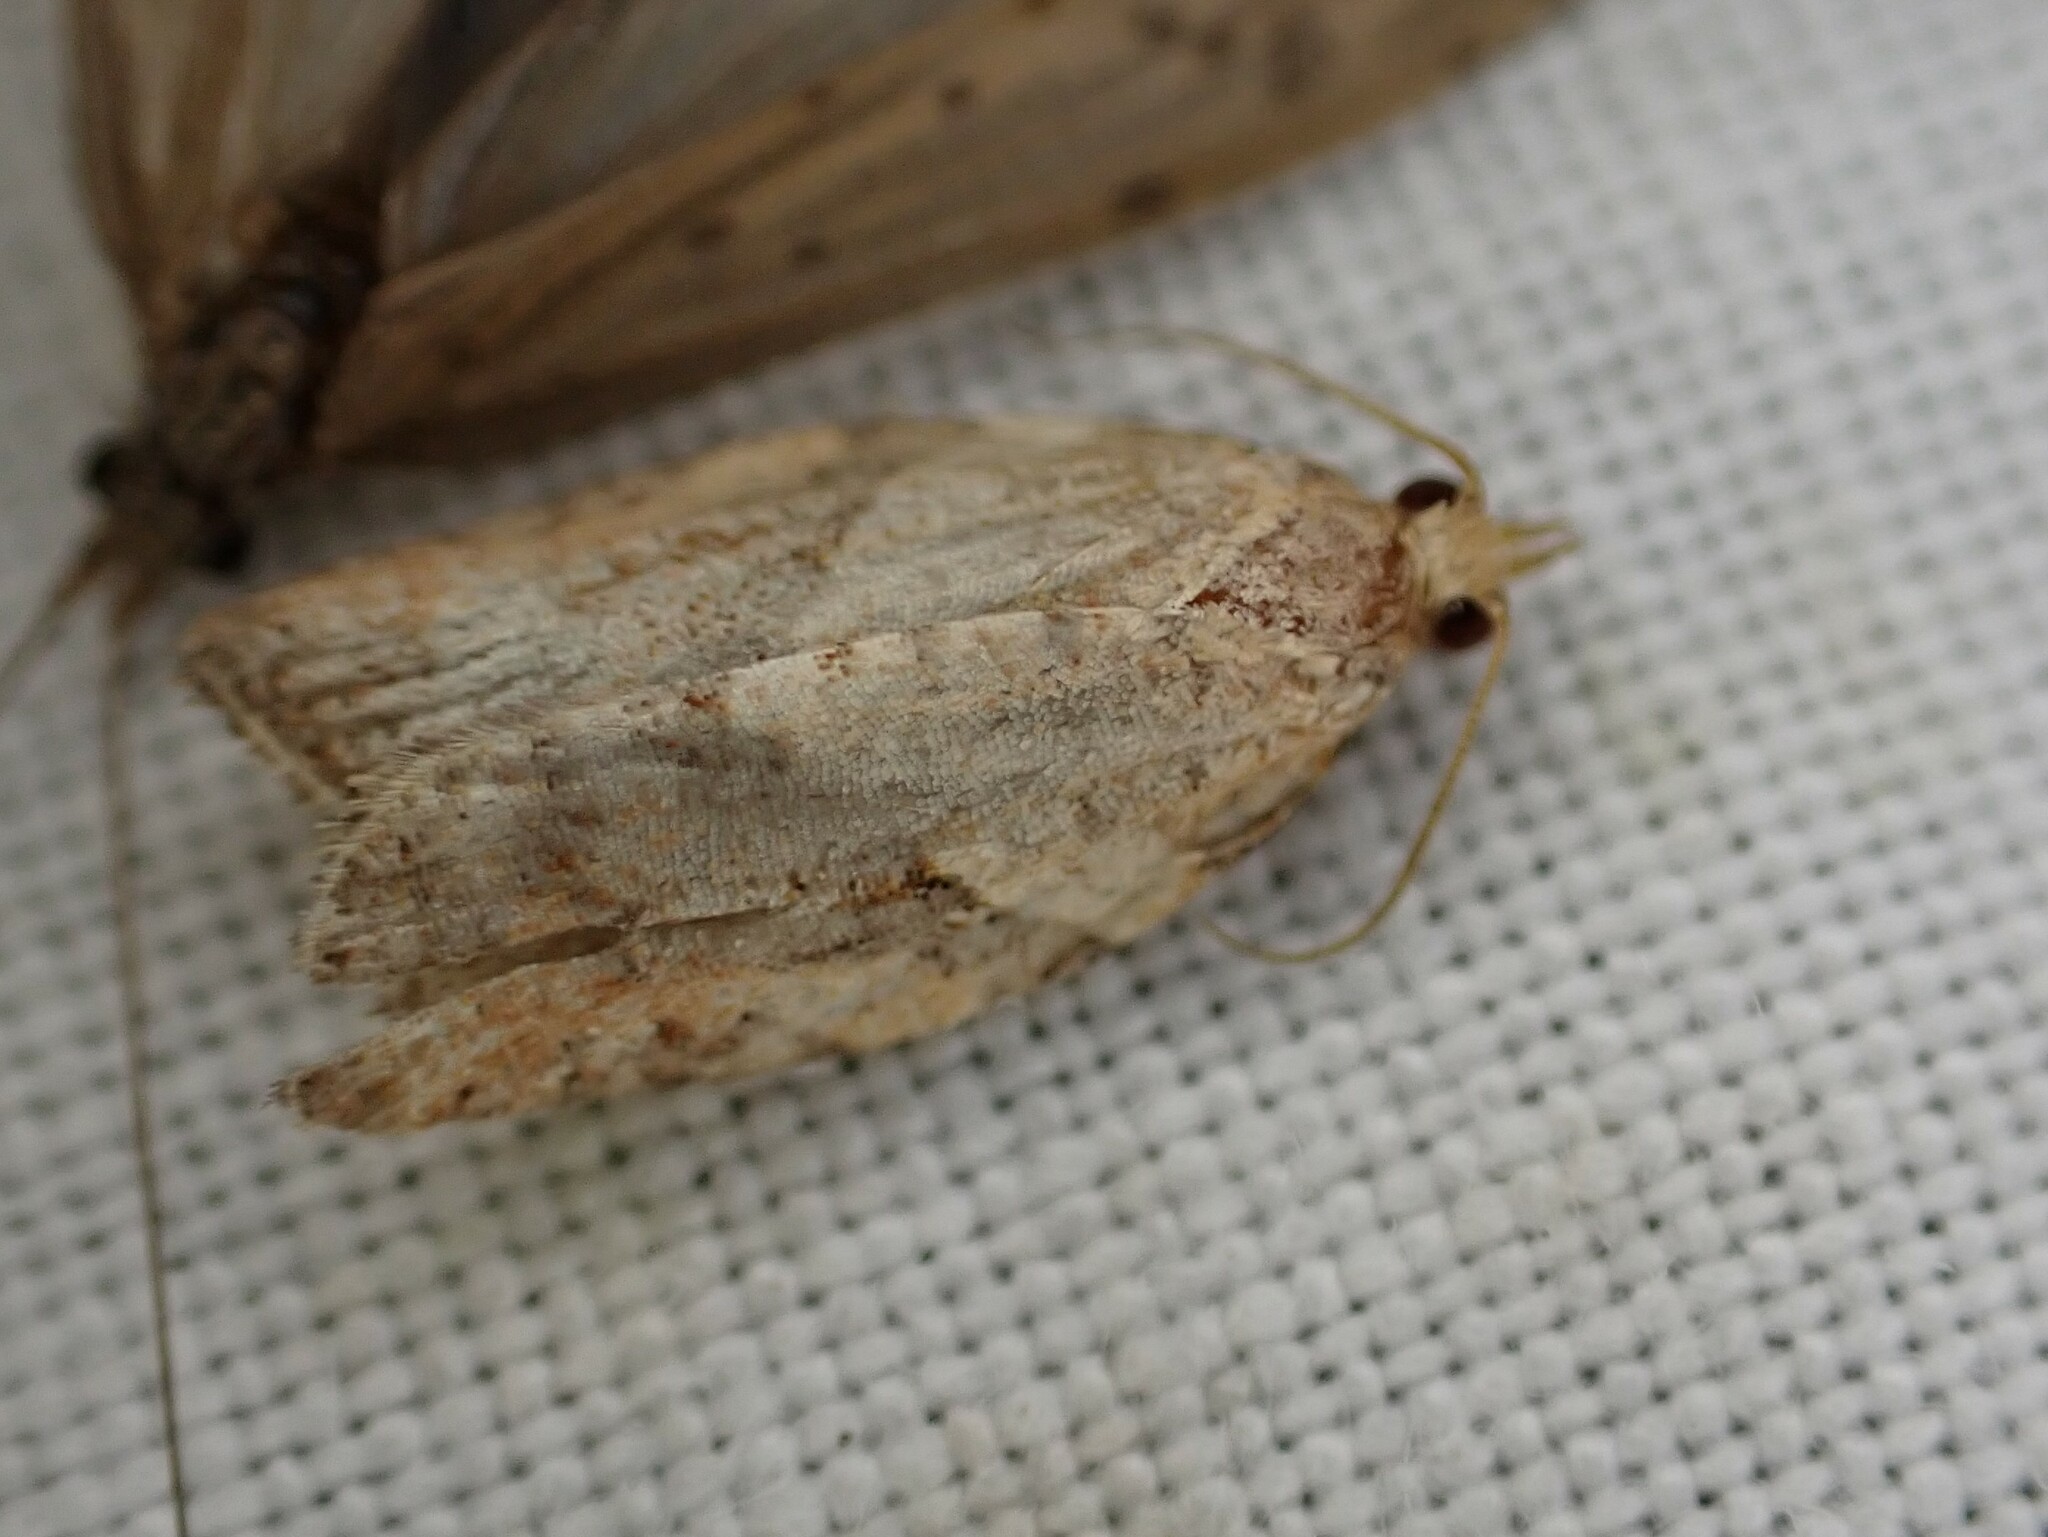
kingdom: Animalia
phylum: Arthropoda
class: Insecta
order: Lepidoptera
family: Tortricidae
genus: Epiphyas
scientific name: Epiphyas postvittana
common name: Light brown apple moth
